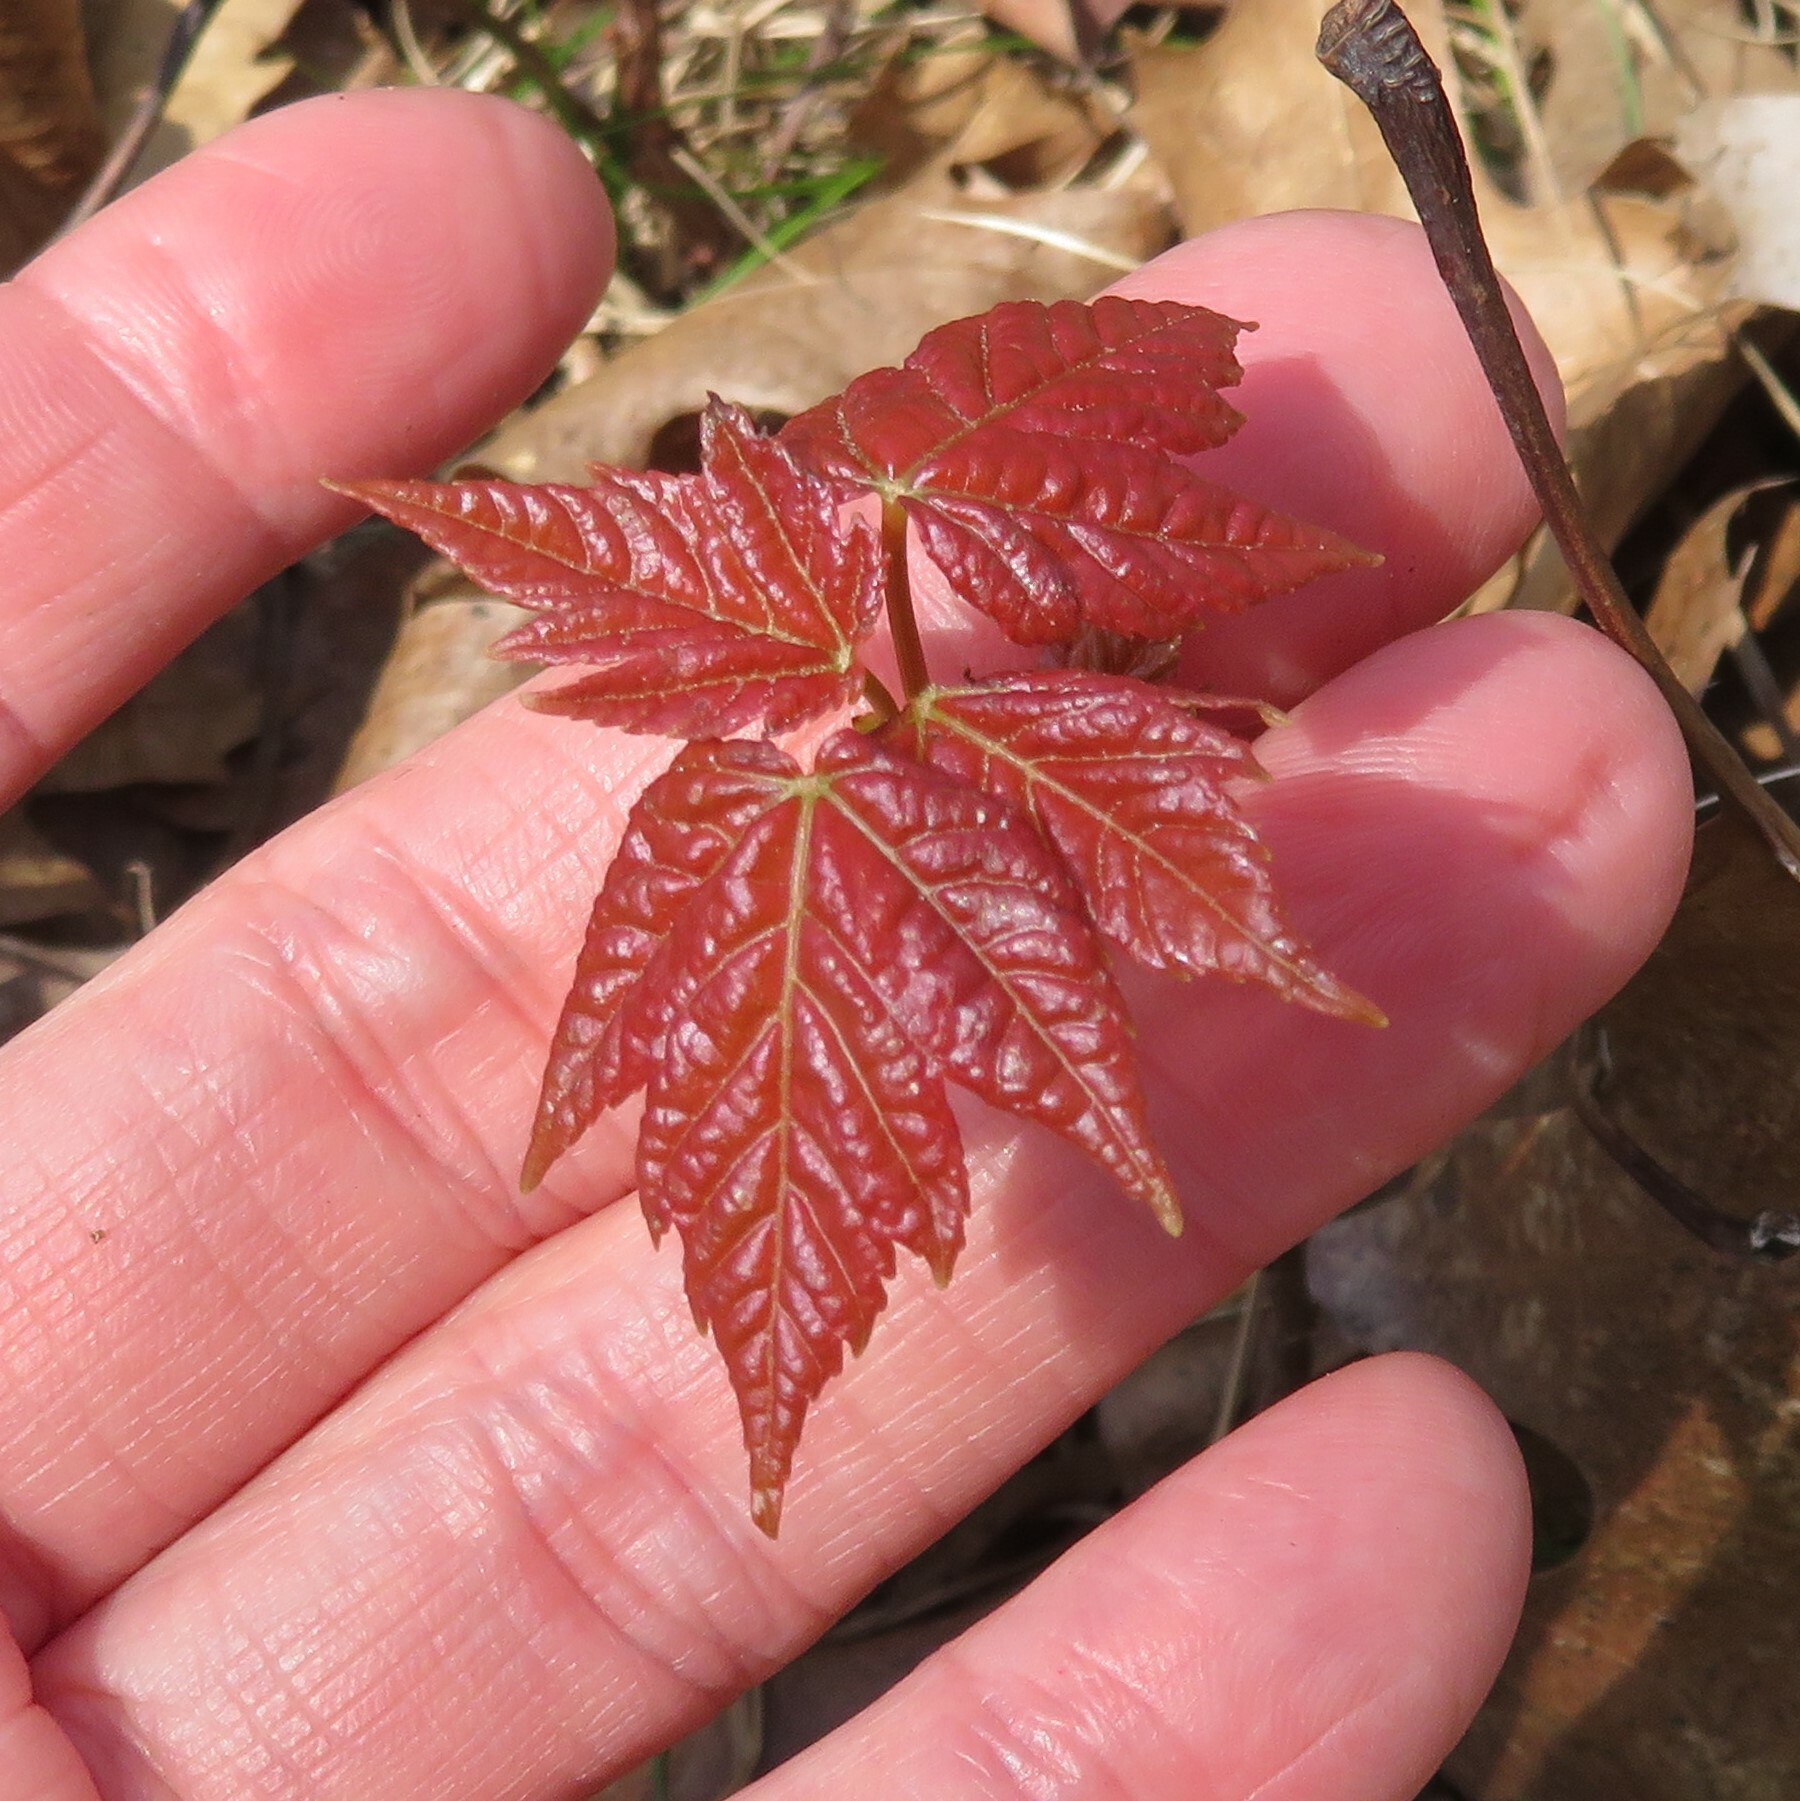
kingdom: Plantae
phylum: Tracheophyta
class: Magnoliopsida
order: Sapindales
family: Sapindaceae
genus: Acer
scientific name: Acer rubrum
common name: Red maple
